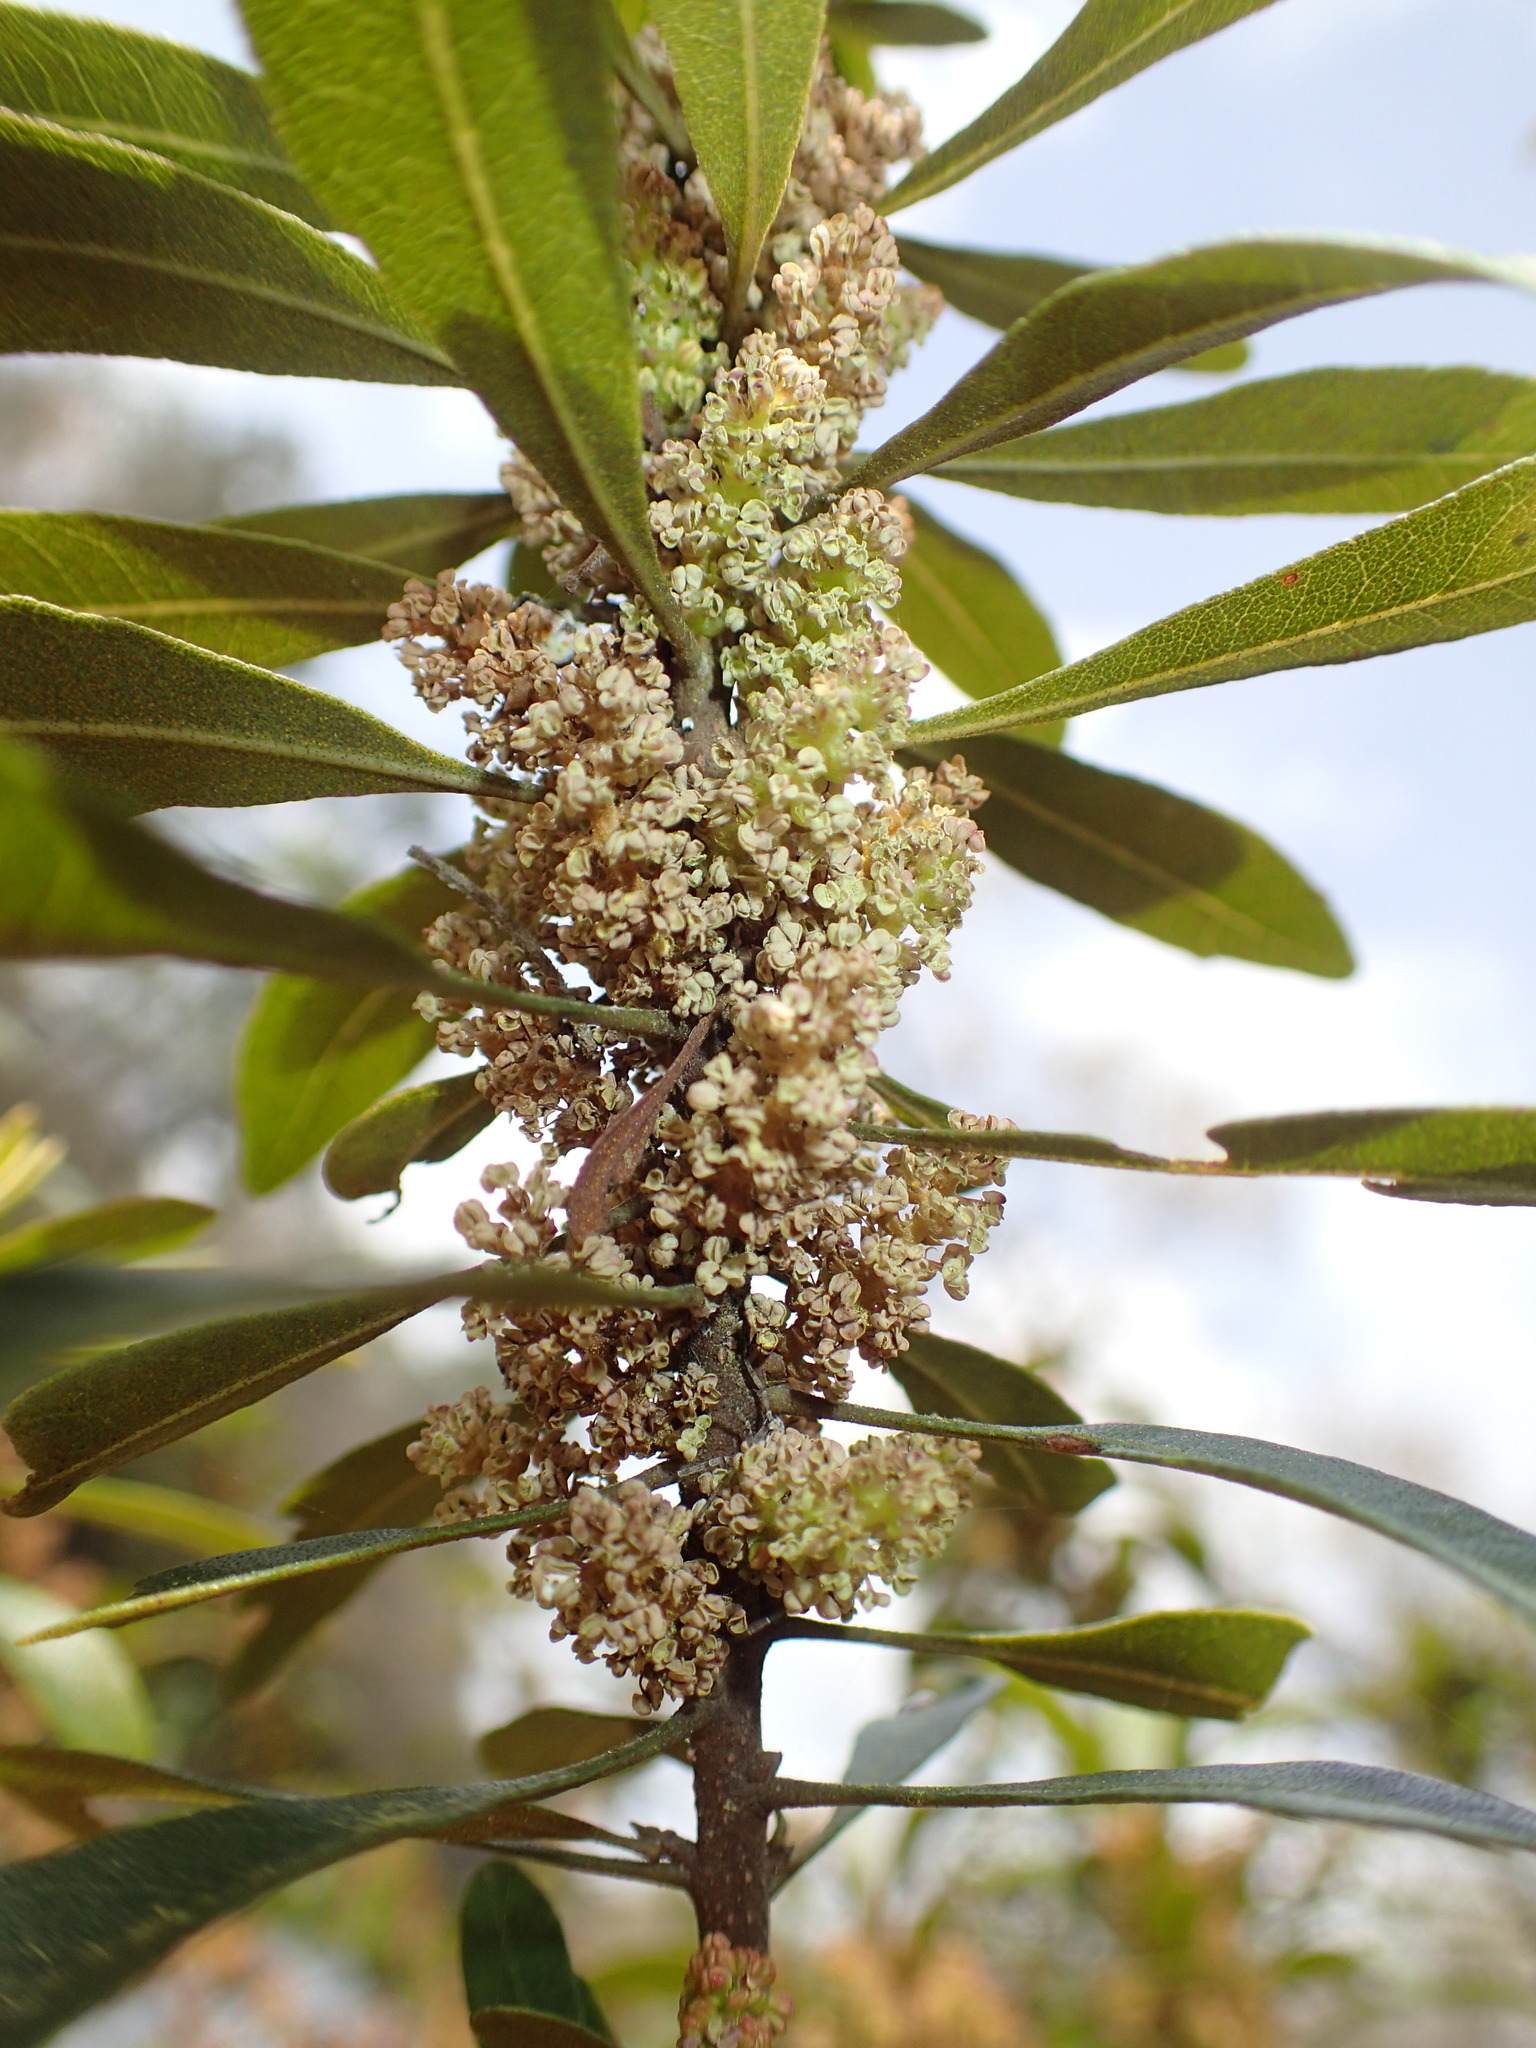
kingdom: Plantae
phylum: Tracheophyta
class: Magnoliopsida
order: Fagales
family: Myricaceae
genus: Morella
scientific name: Morella cerifera
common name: Wax myrtle
